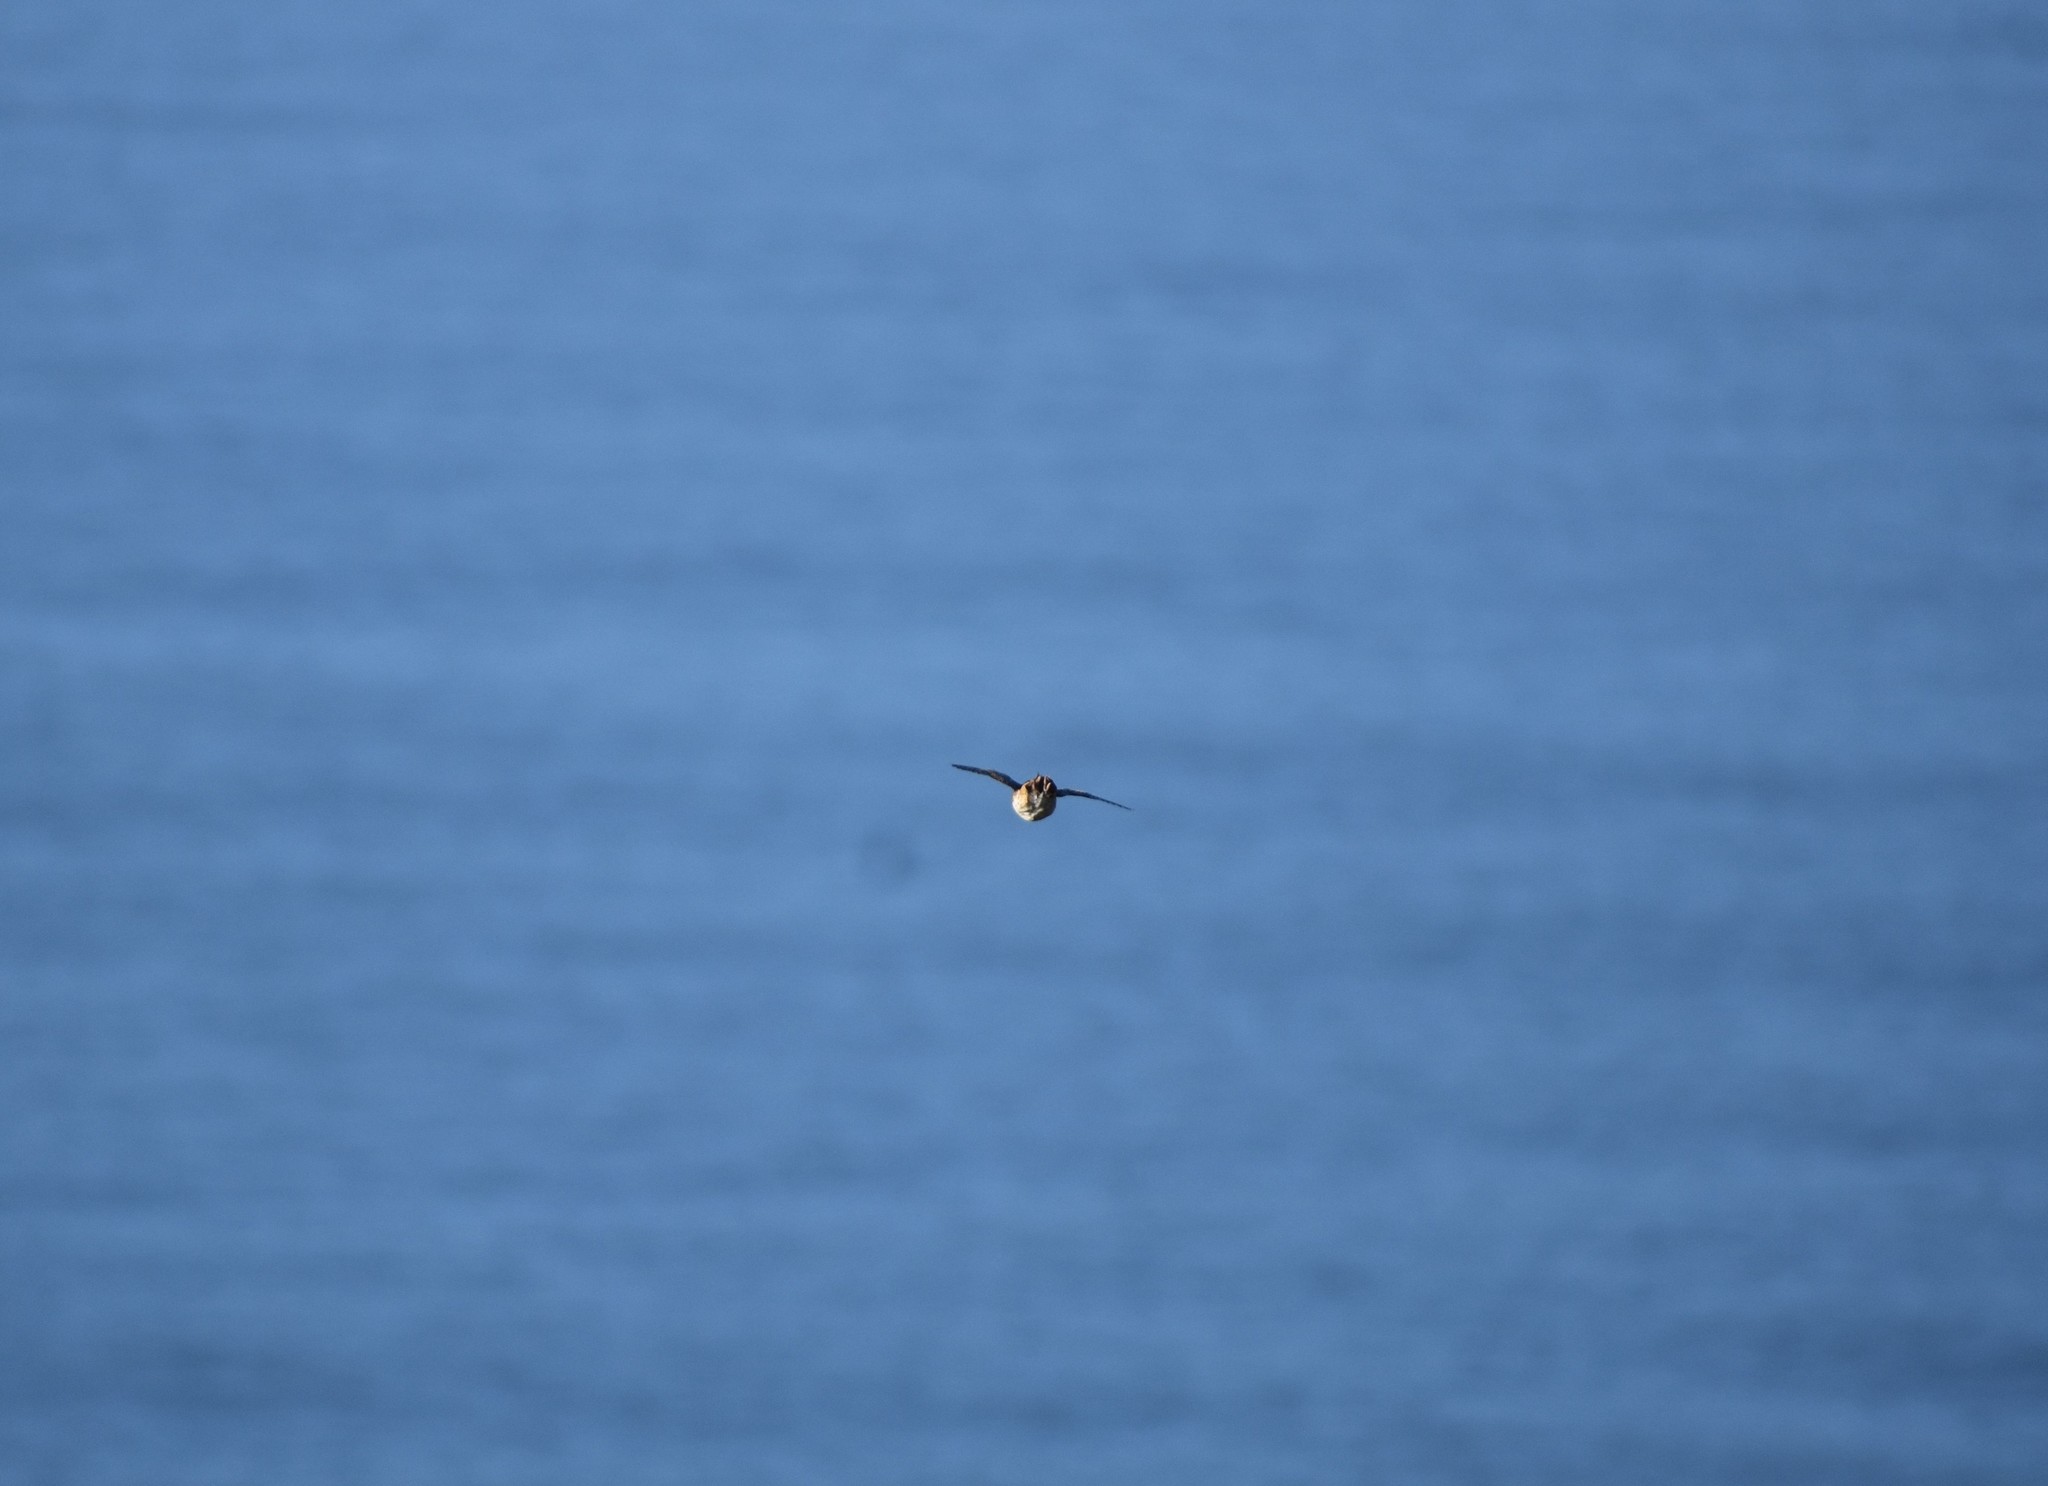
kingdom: Animalia
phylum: Chordata
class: Aves
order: Charadriiformes
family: Turnicidae
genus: Turnix
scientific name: Turnix hottentottus
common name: Hottentot buttonquail
